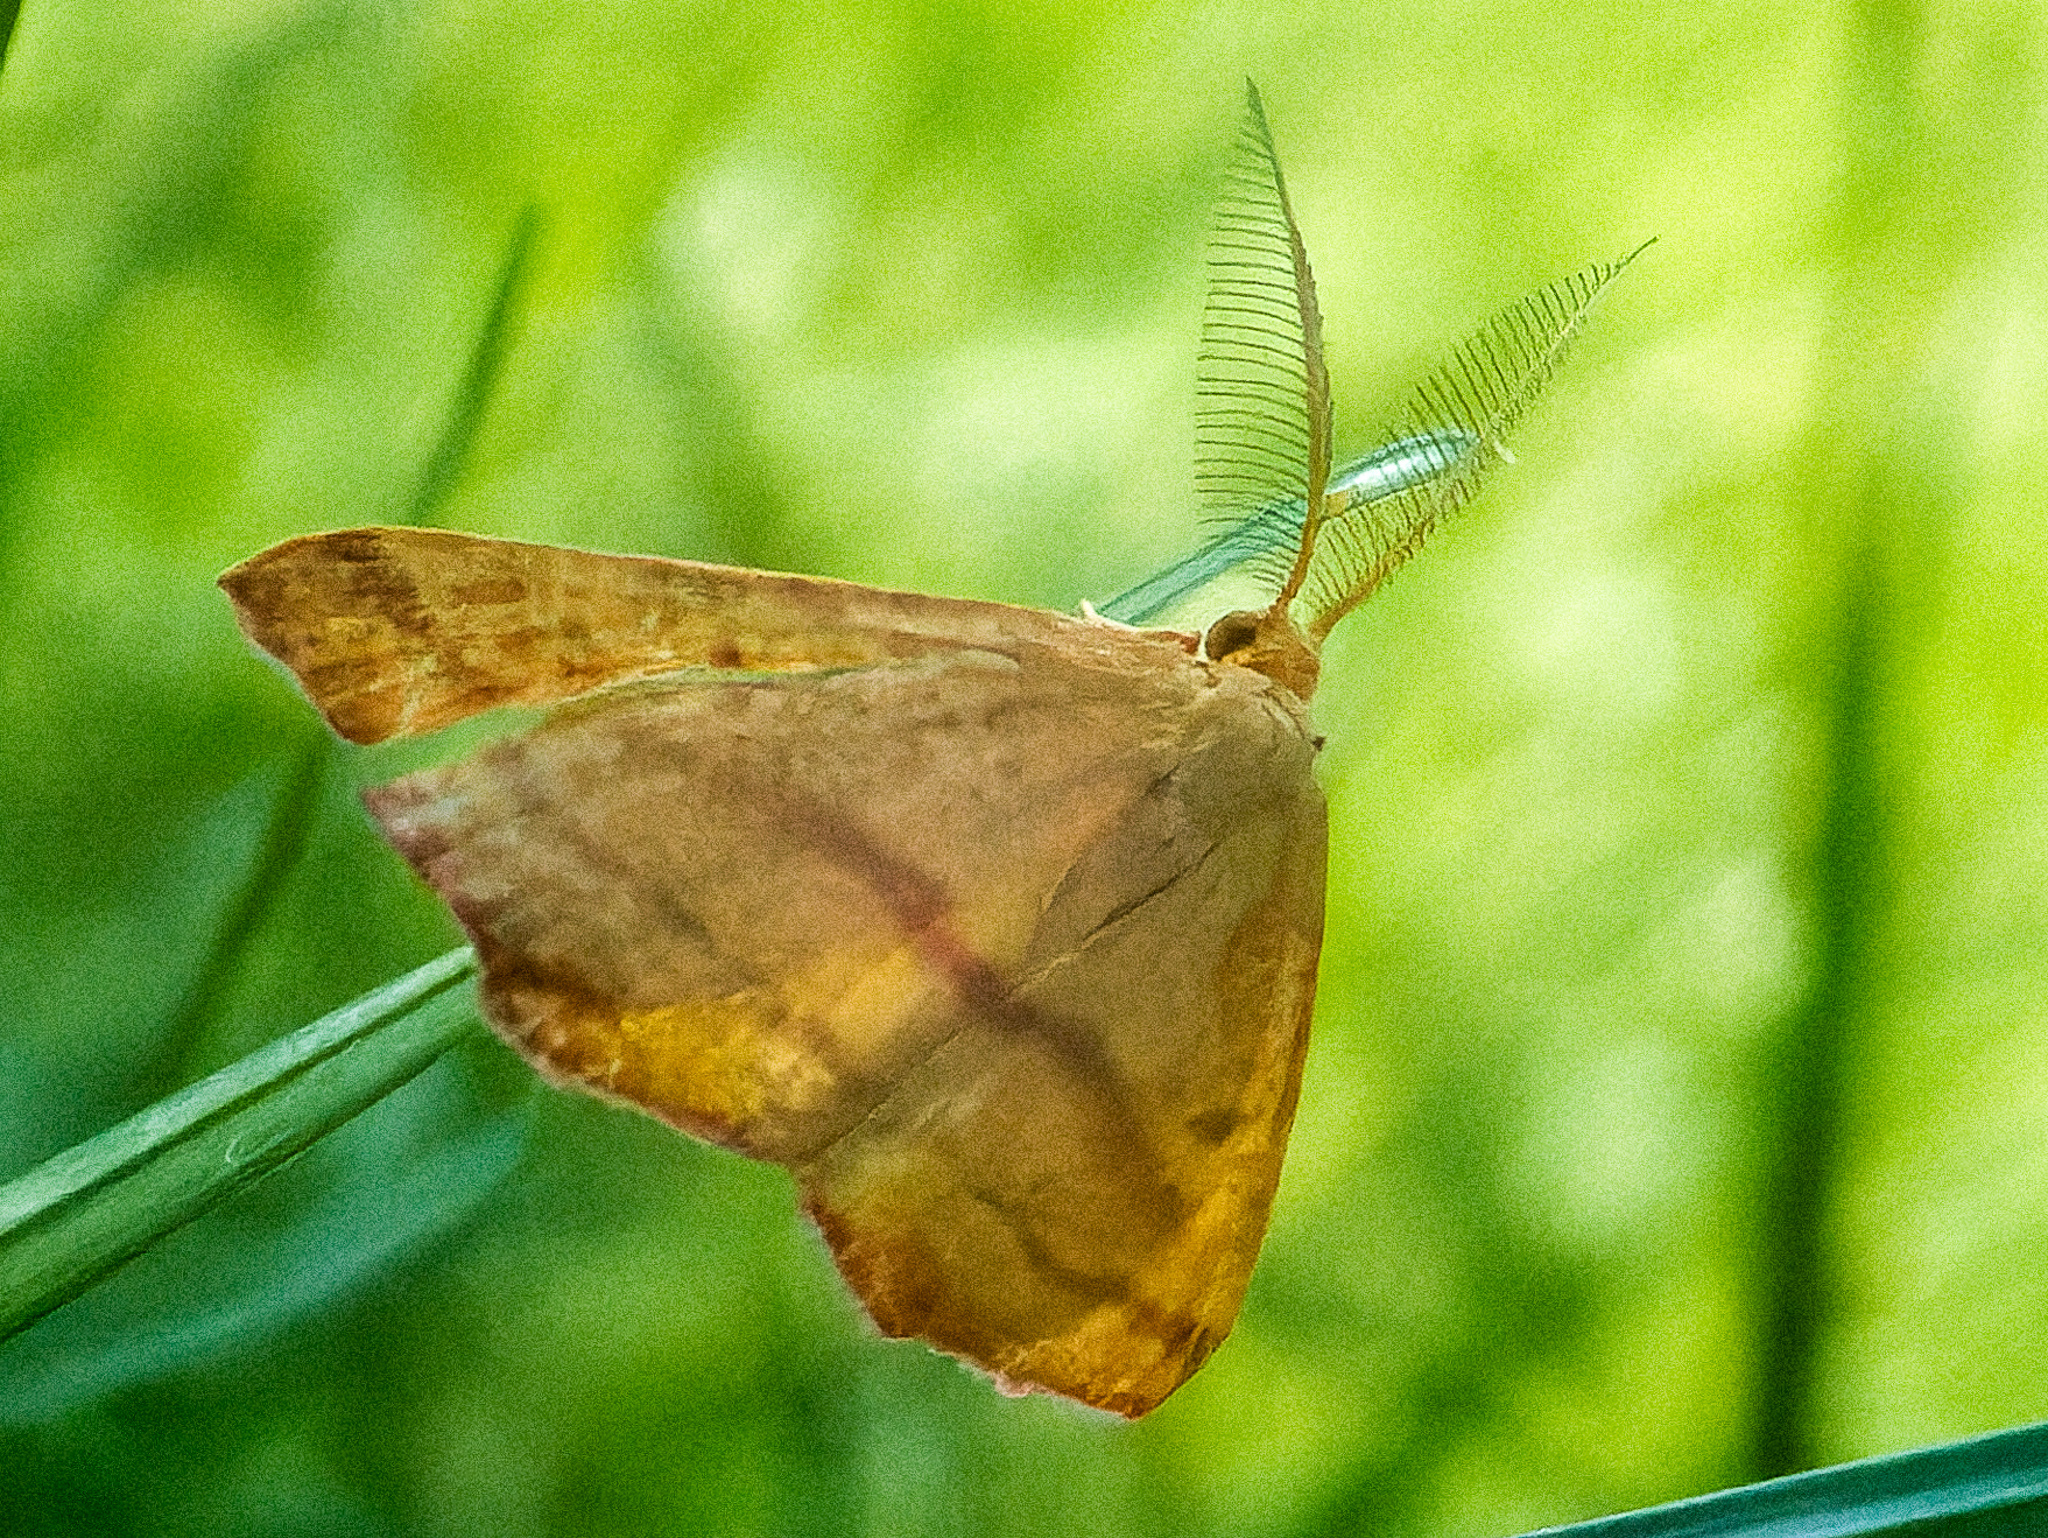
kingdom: Animalia
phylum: Arthropoda
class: Insecta
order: Lepidoptera
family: Geometridae
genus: Haematopis
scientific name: Haematopis grataria
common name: Chickweed geometer
